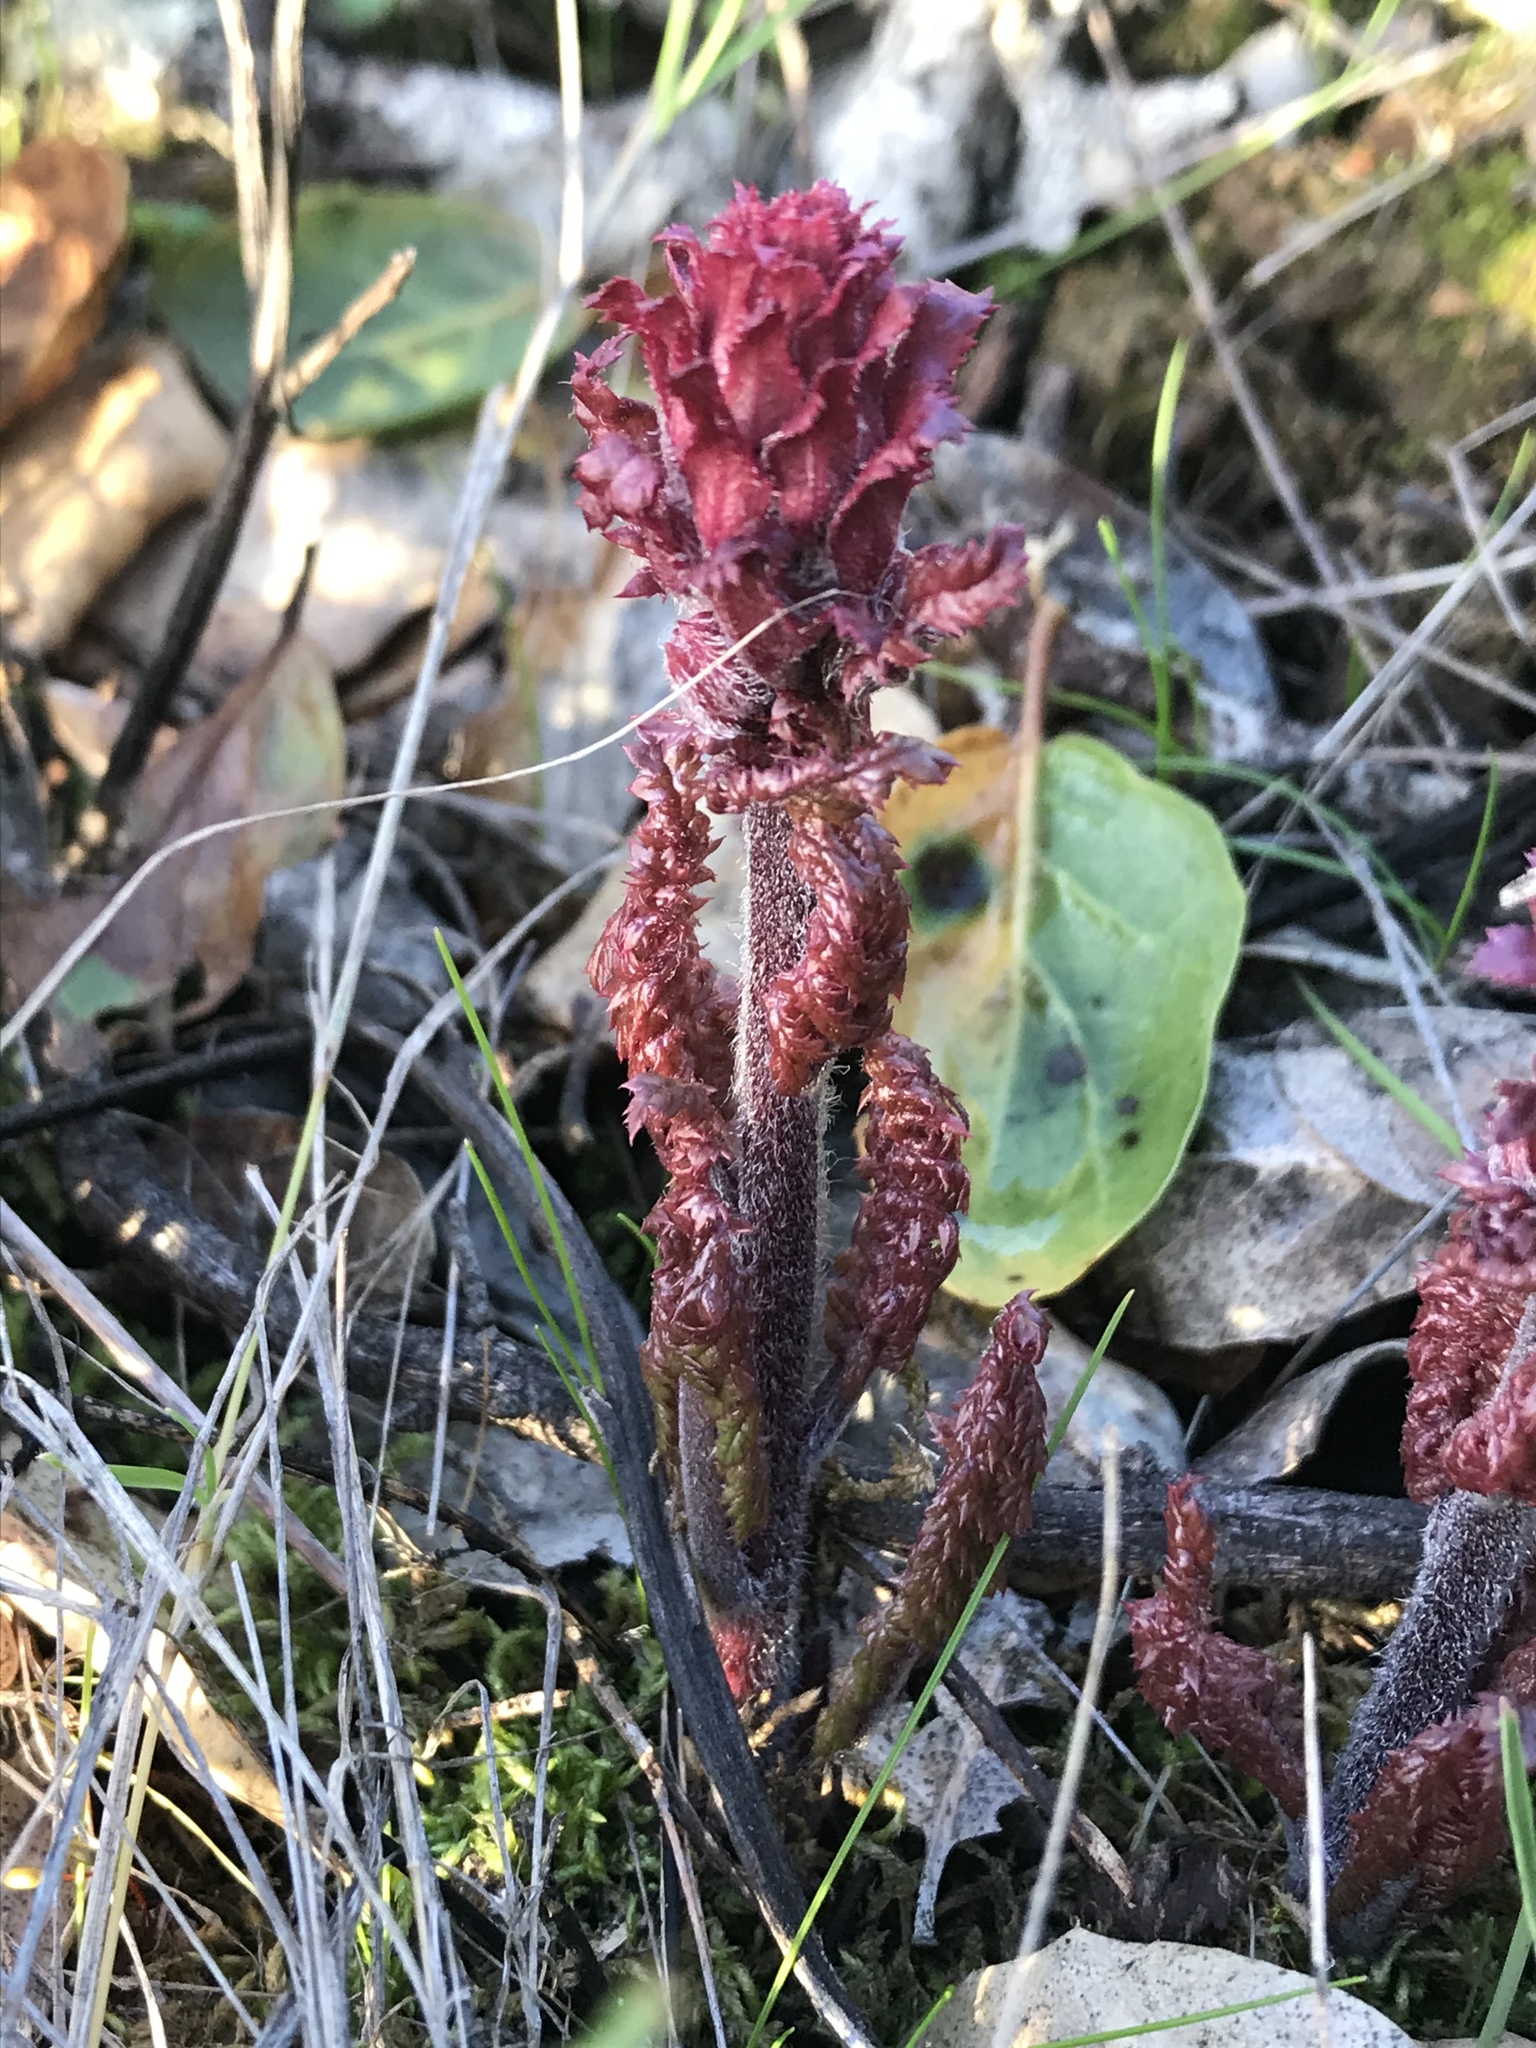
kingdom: Plantae
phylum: Tracheophyta
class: Magnoliopsida
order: Lamiales
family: Orobanchaceae
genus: Pedicularis
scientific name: Pedicularis densiflora
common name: Indian warrior
